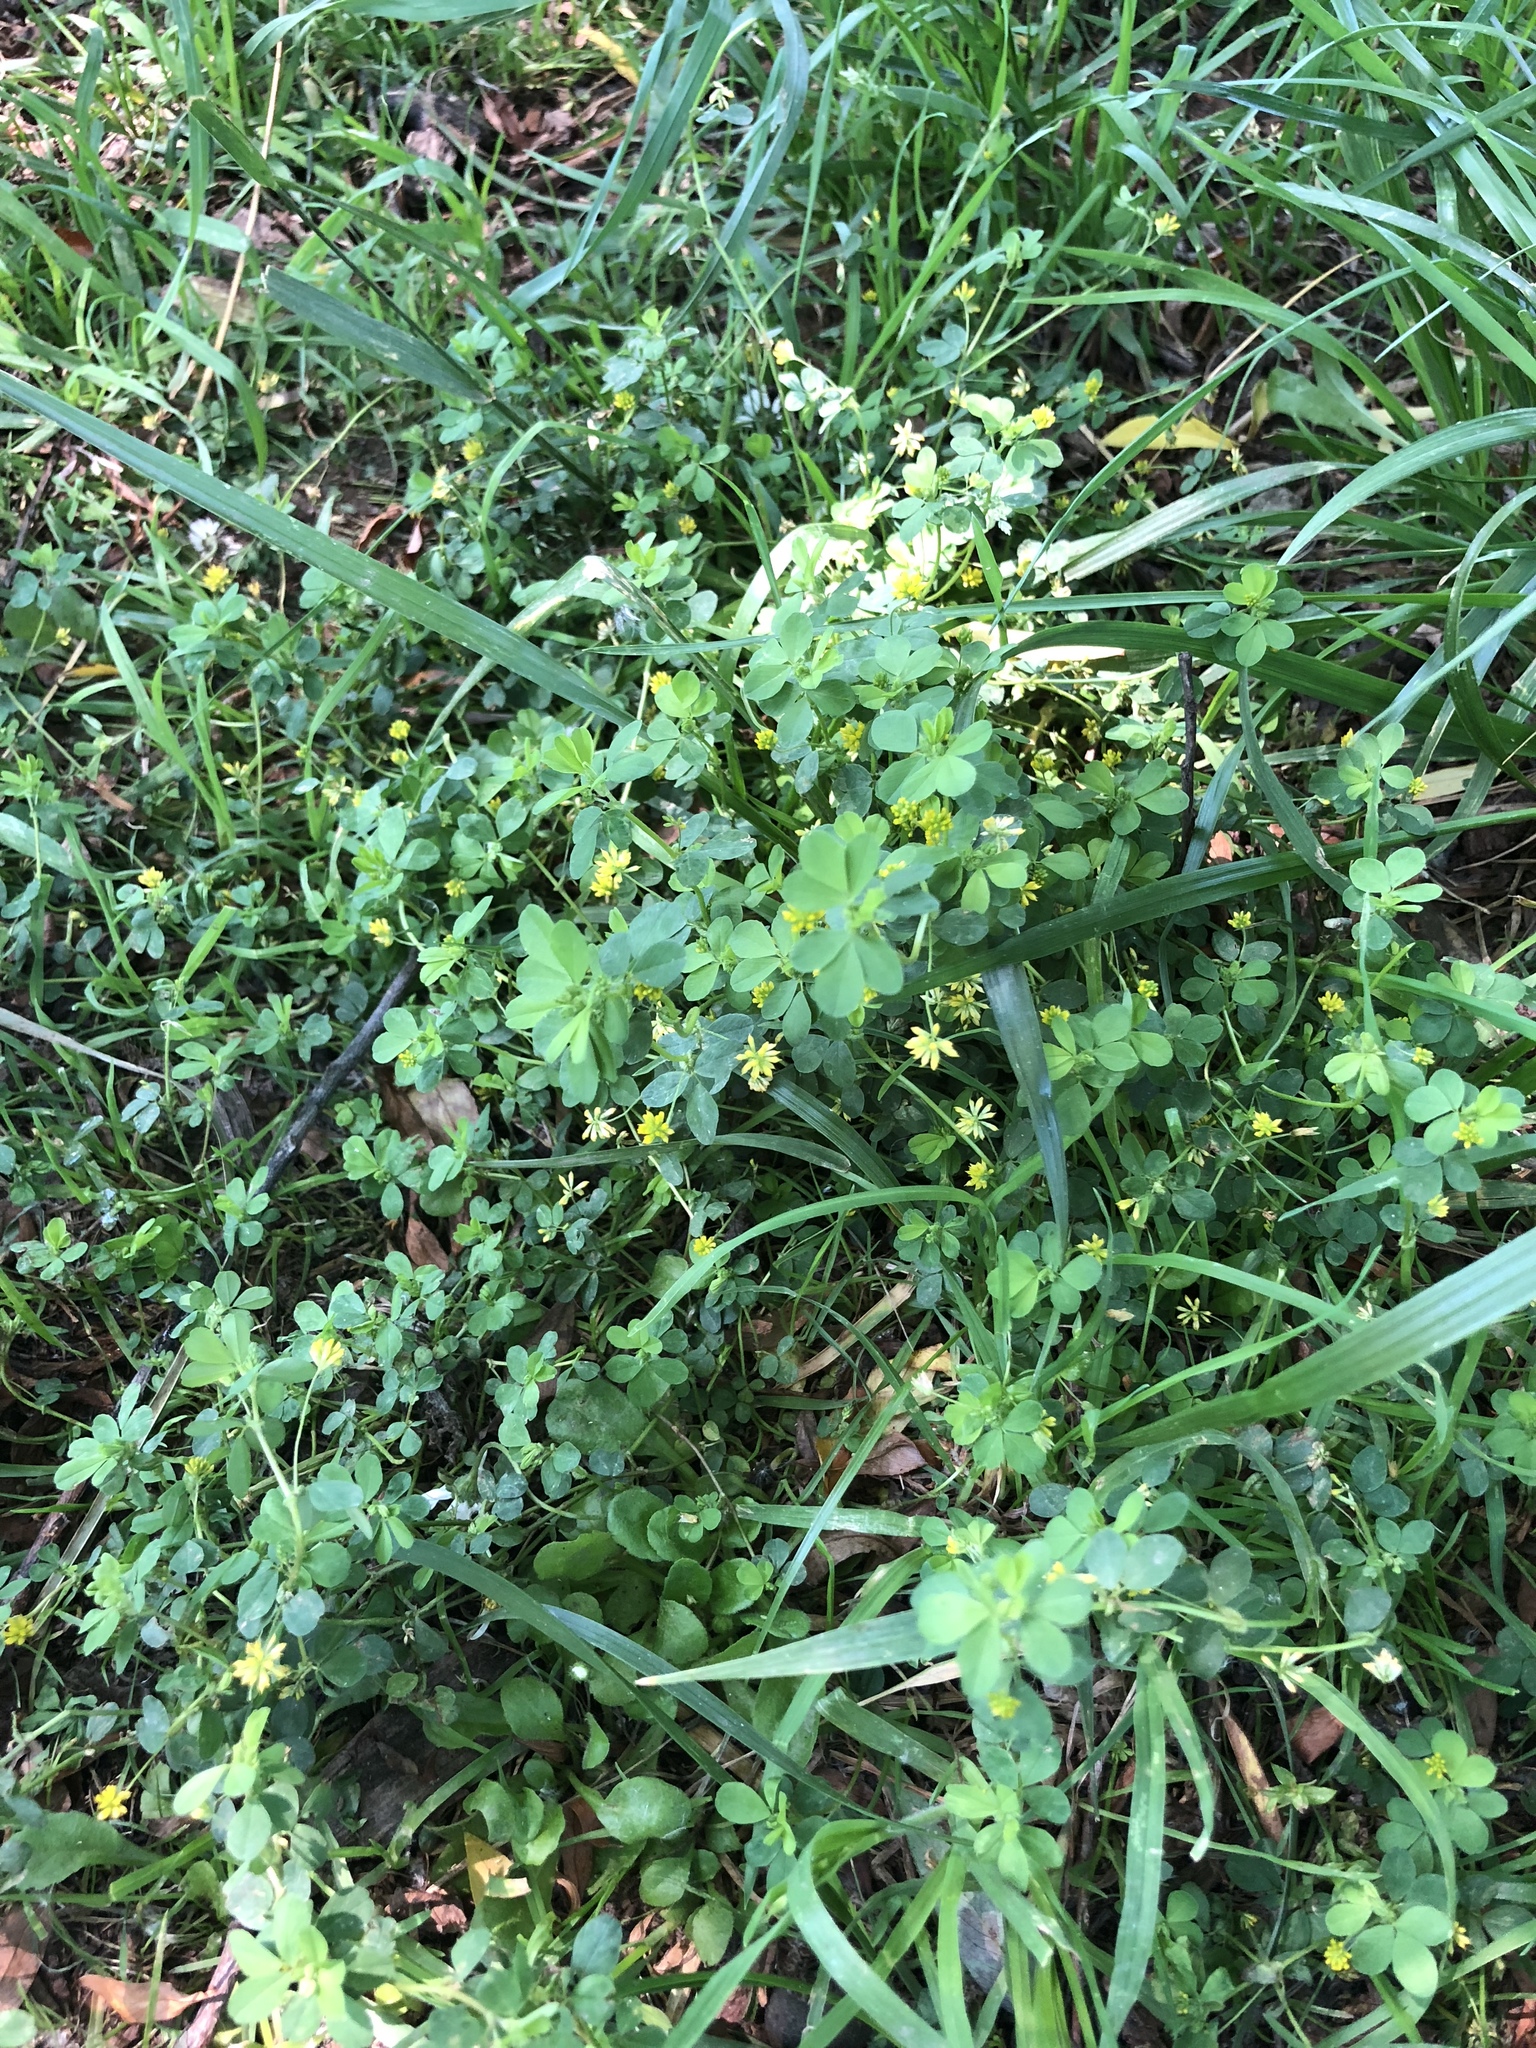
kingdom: Plantae
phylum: Tracheophyta
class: Magnoliopsida
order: Fabales
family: Fabaceae
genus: Trifolium
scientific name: Trifolium dubium
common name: Suckling clover
